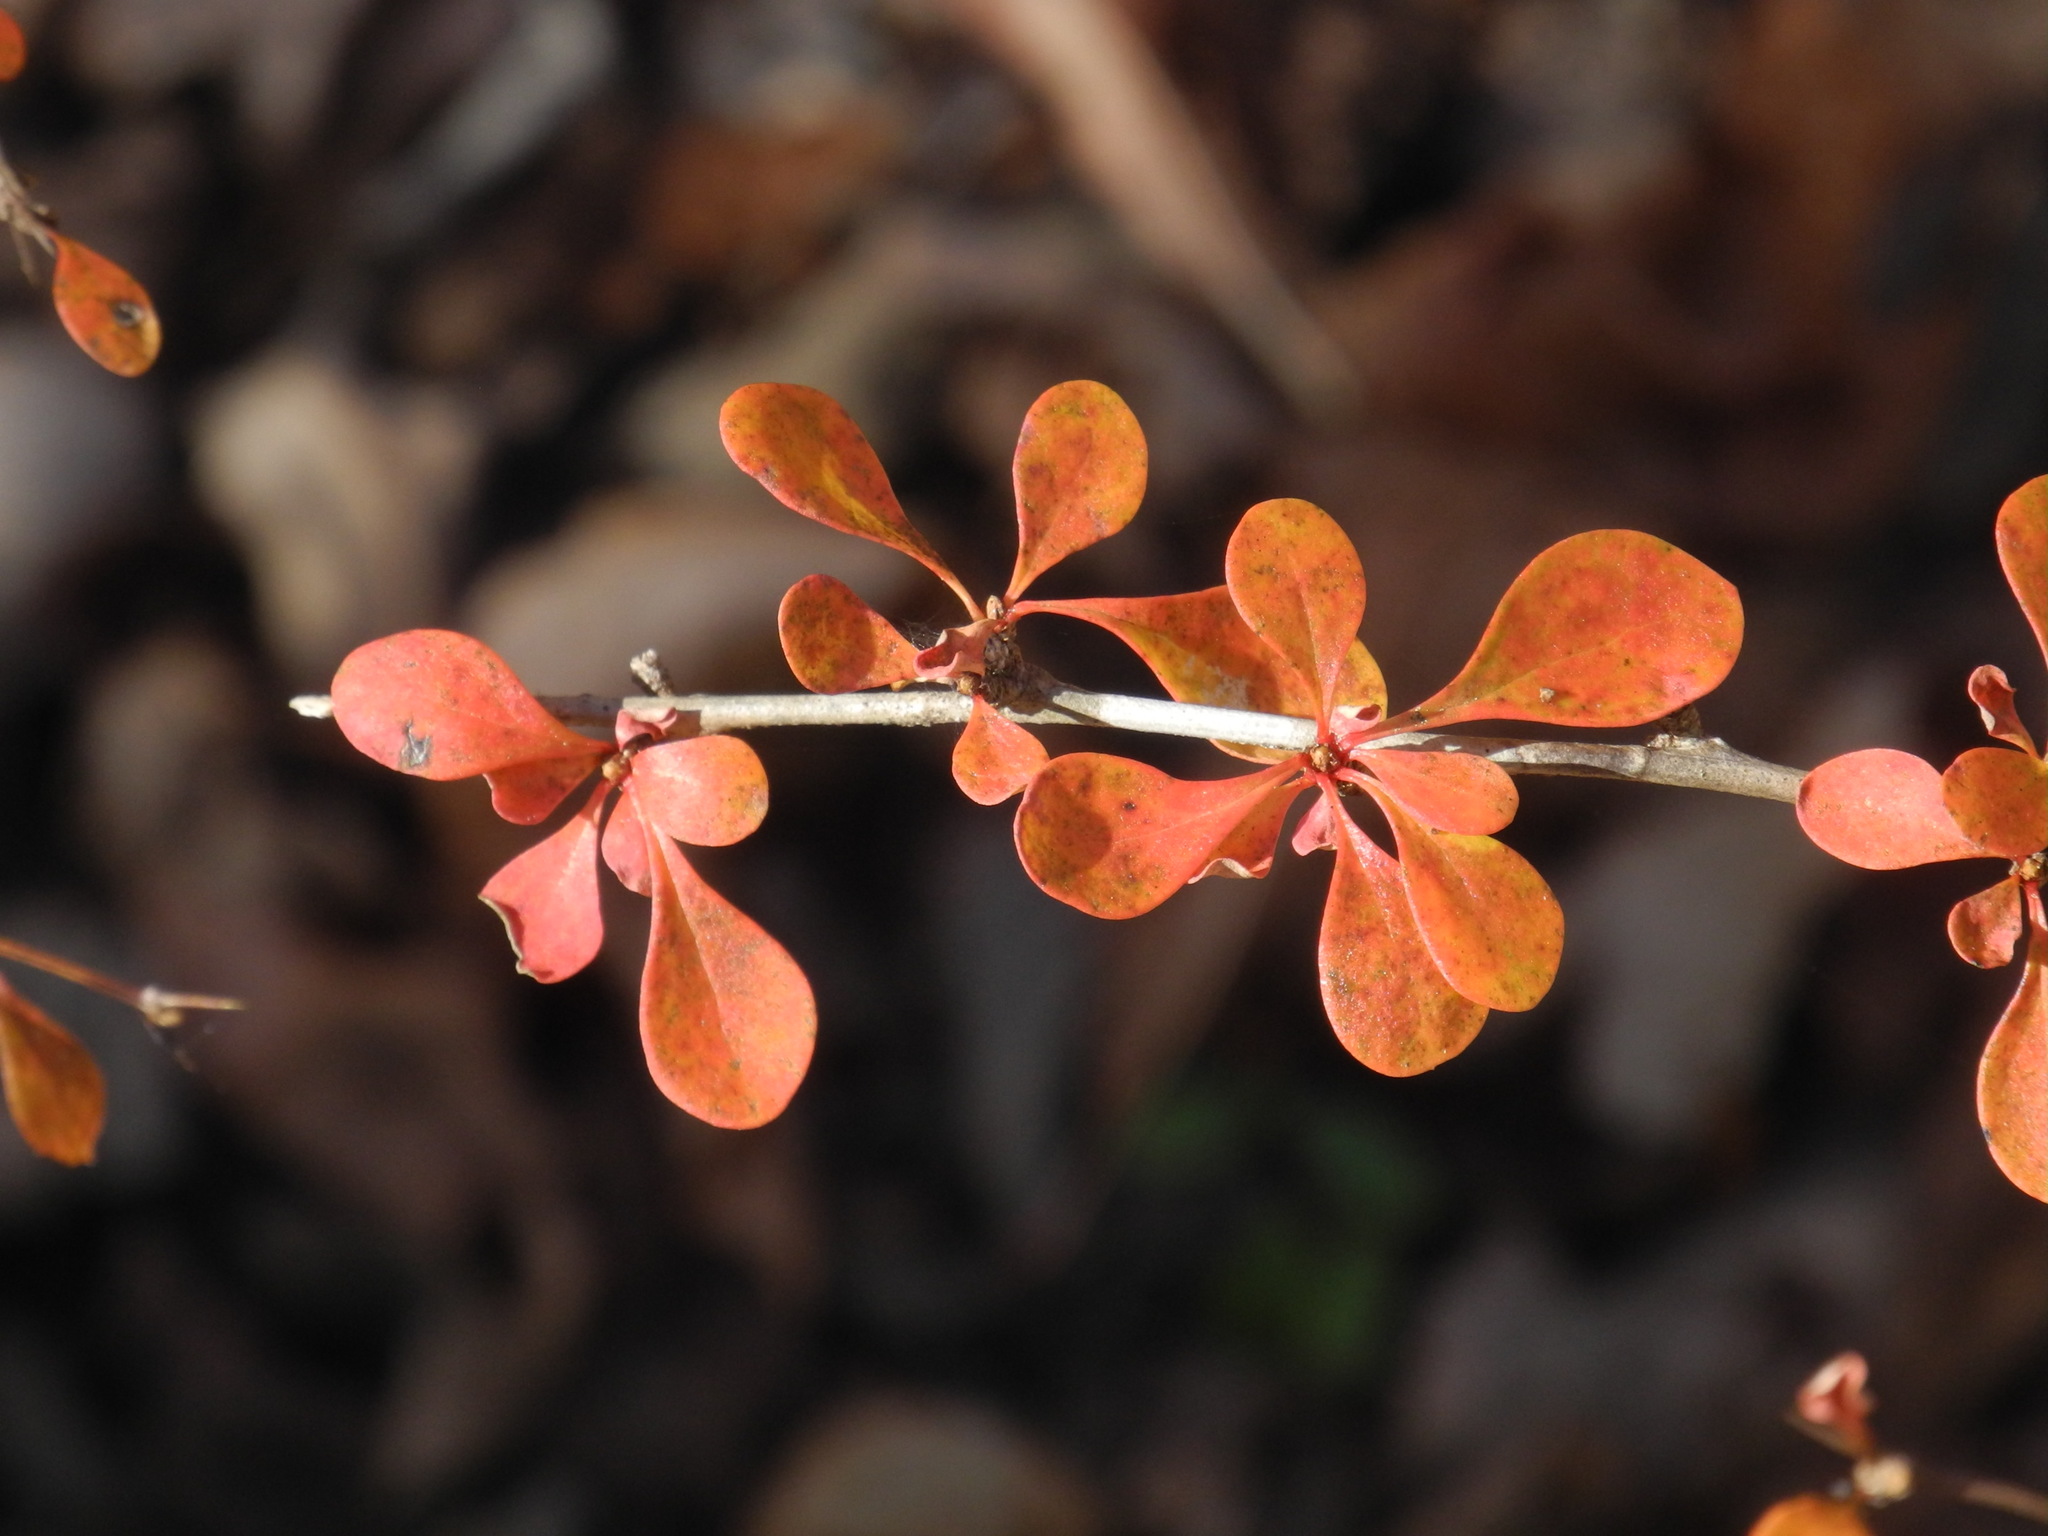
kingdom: Plantae
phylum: Tracheophyta
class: Magnoliopsida
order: Ranunculales
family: Berberidaceae
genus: Berberis
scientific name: Berberis thunbergii
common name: Japanese barberry
